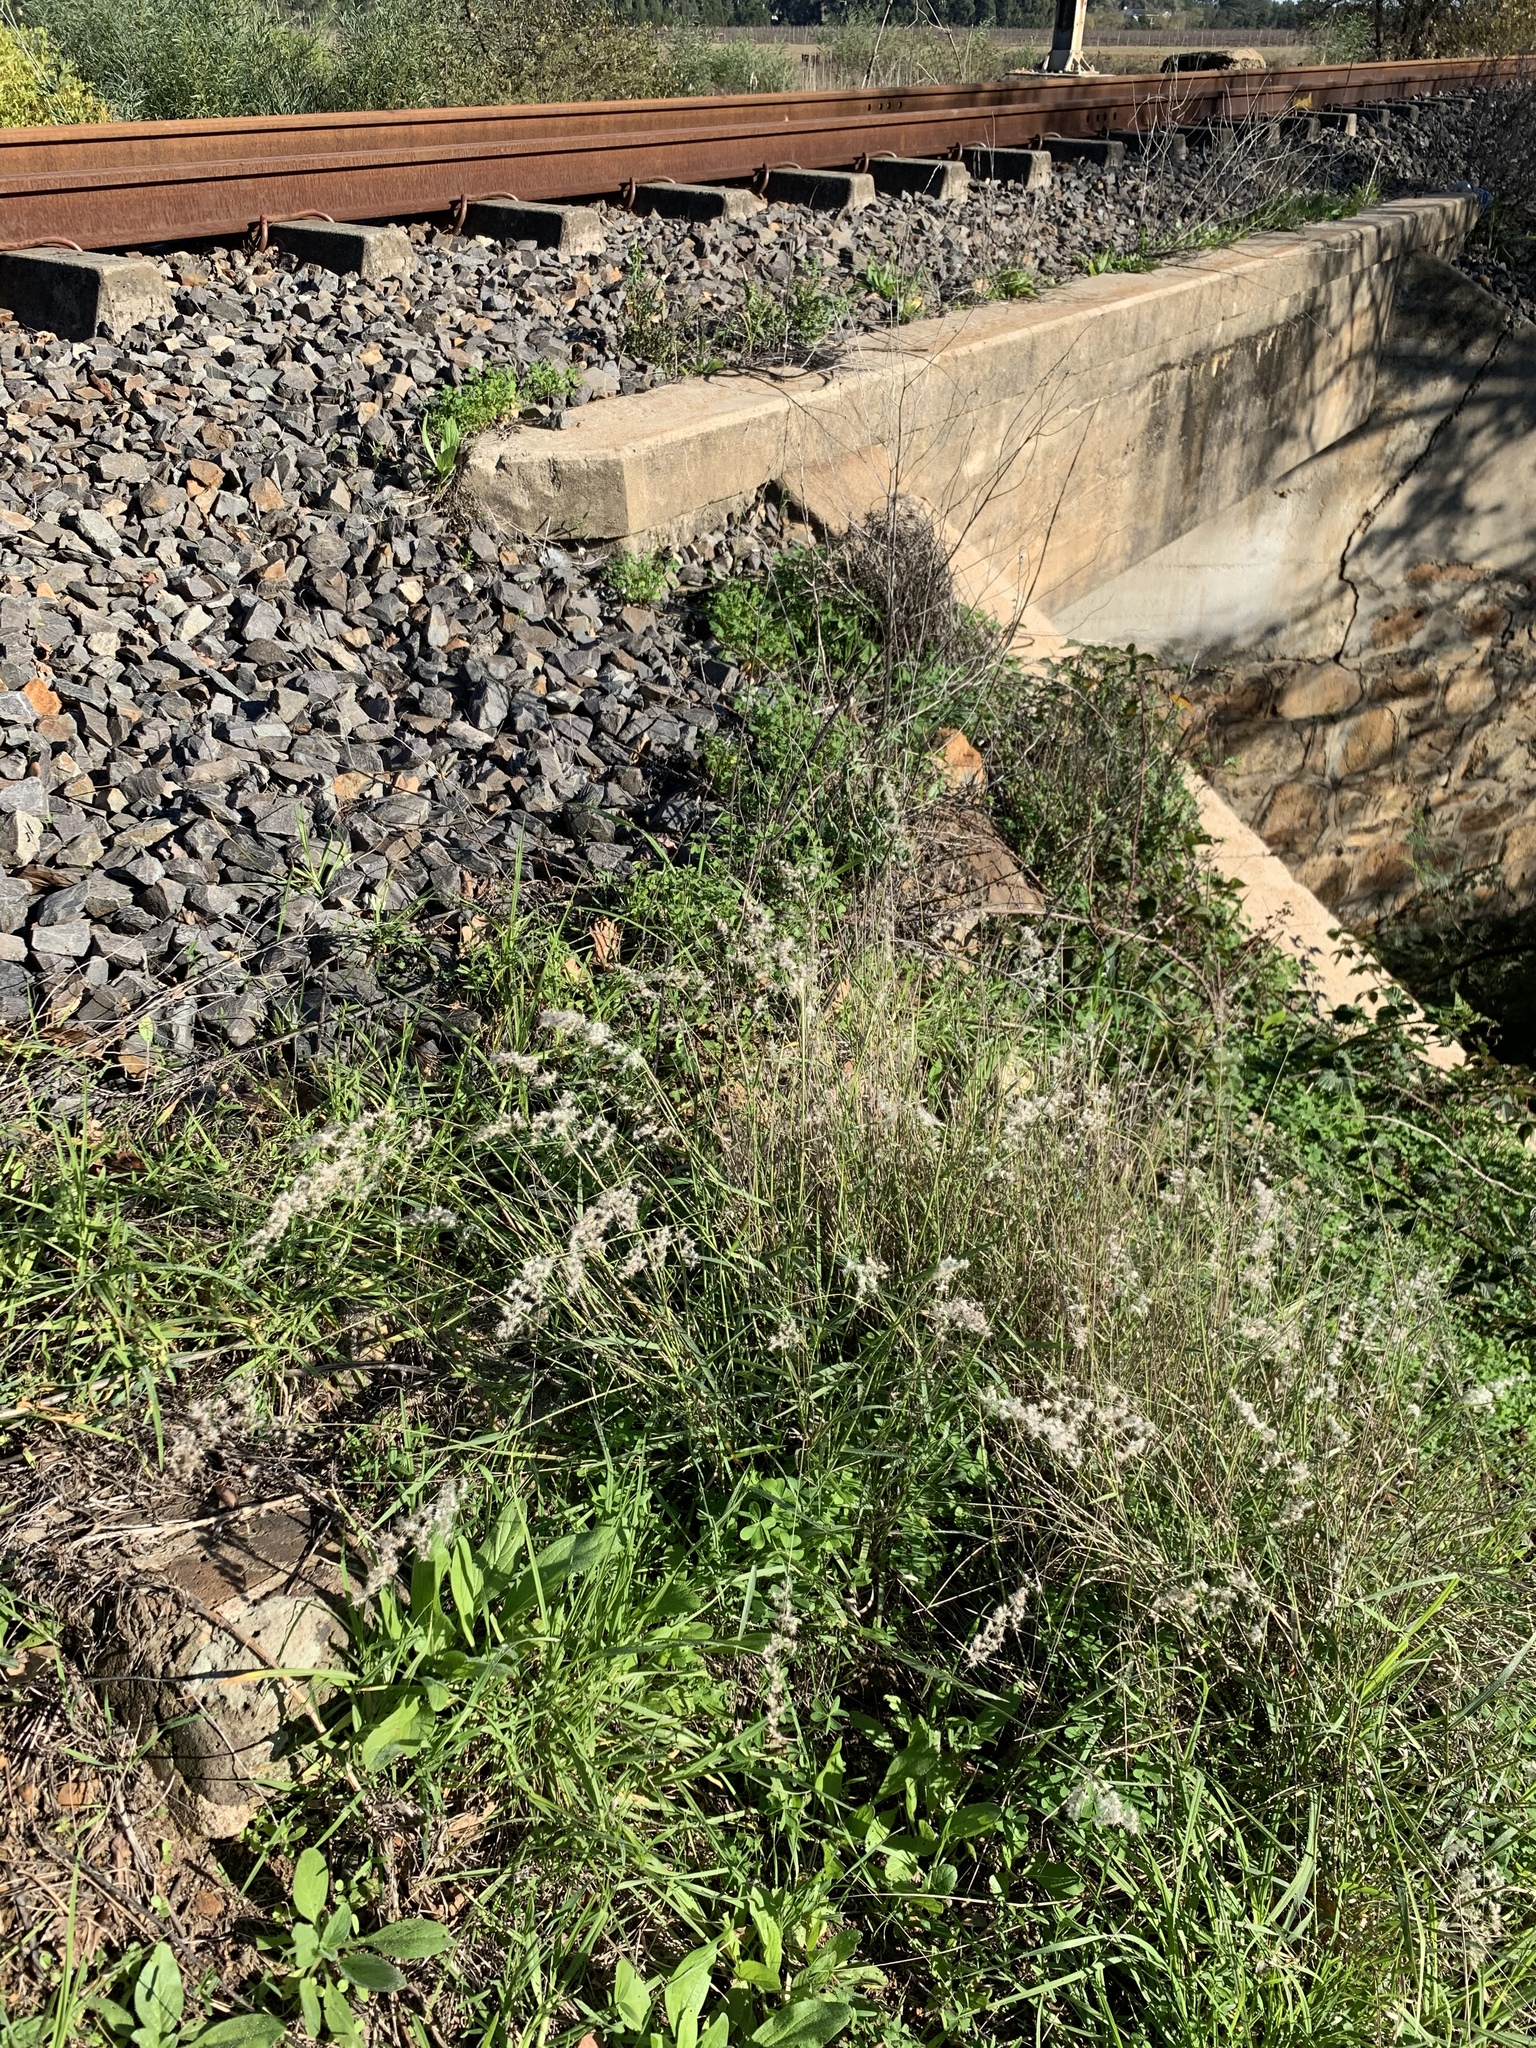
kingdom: Plantae
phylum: Tracheophyta
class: Liliopsida
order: Poales
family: Poaceae
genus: Melinis
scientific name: Melinis repens
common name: Rose natal grass
